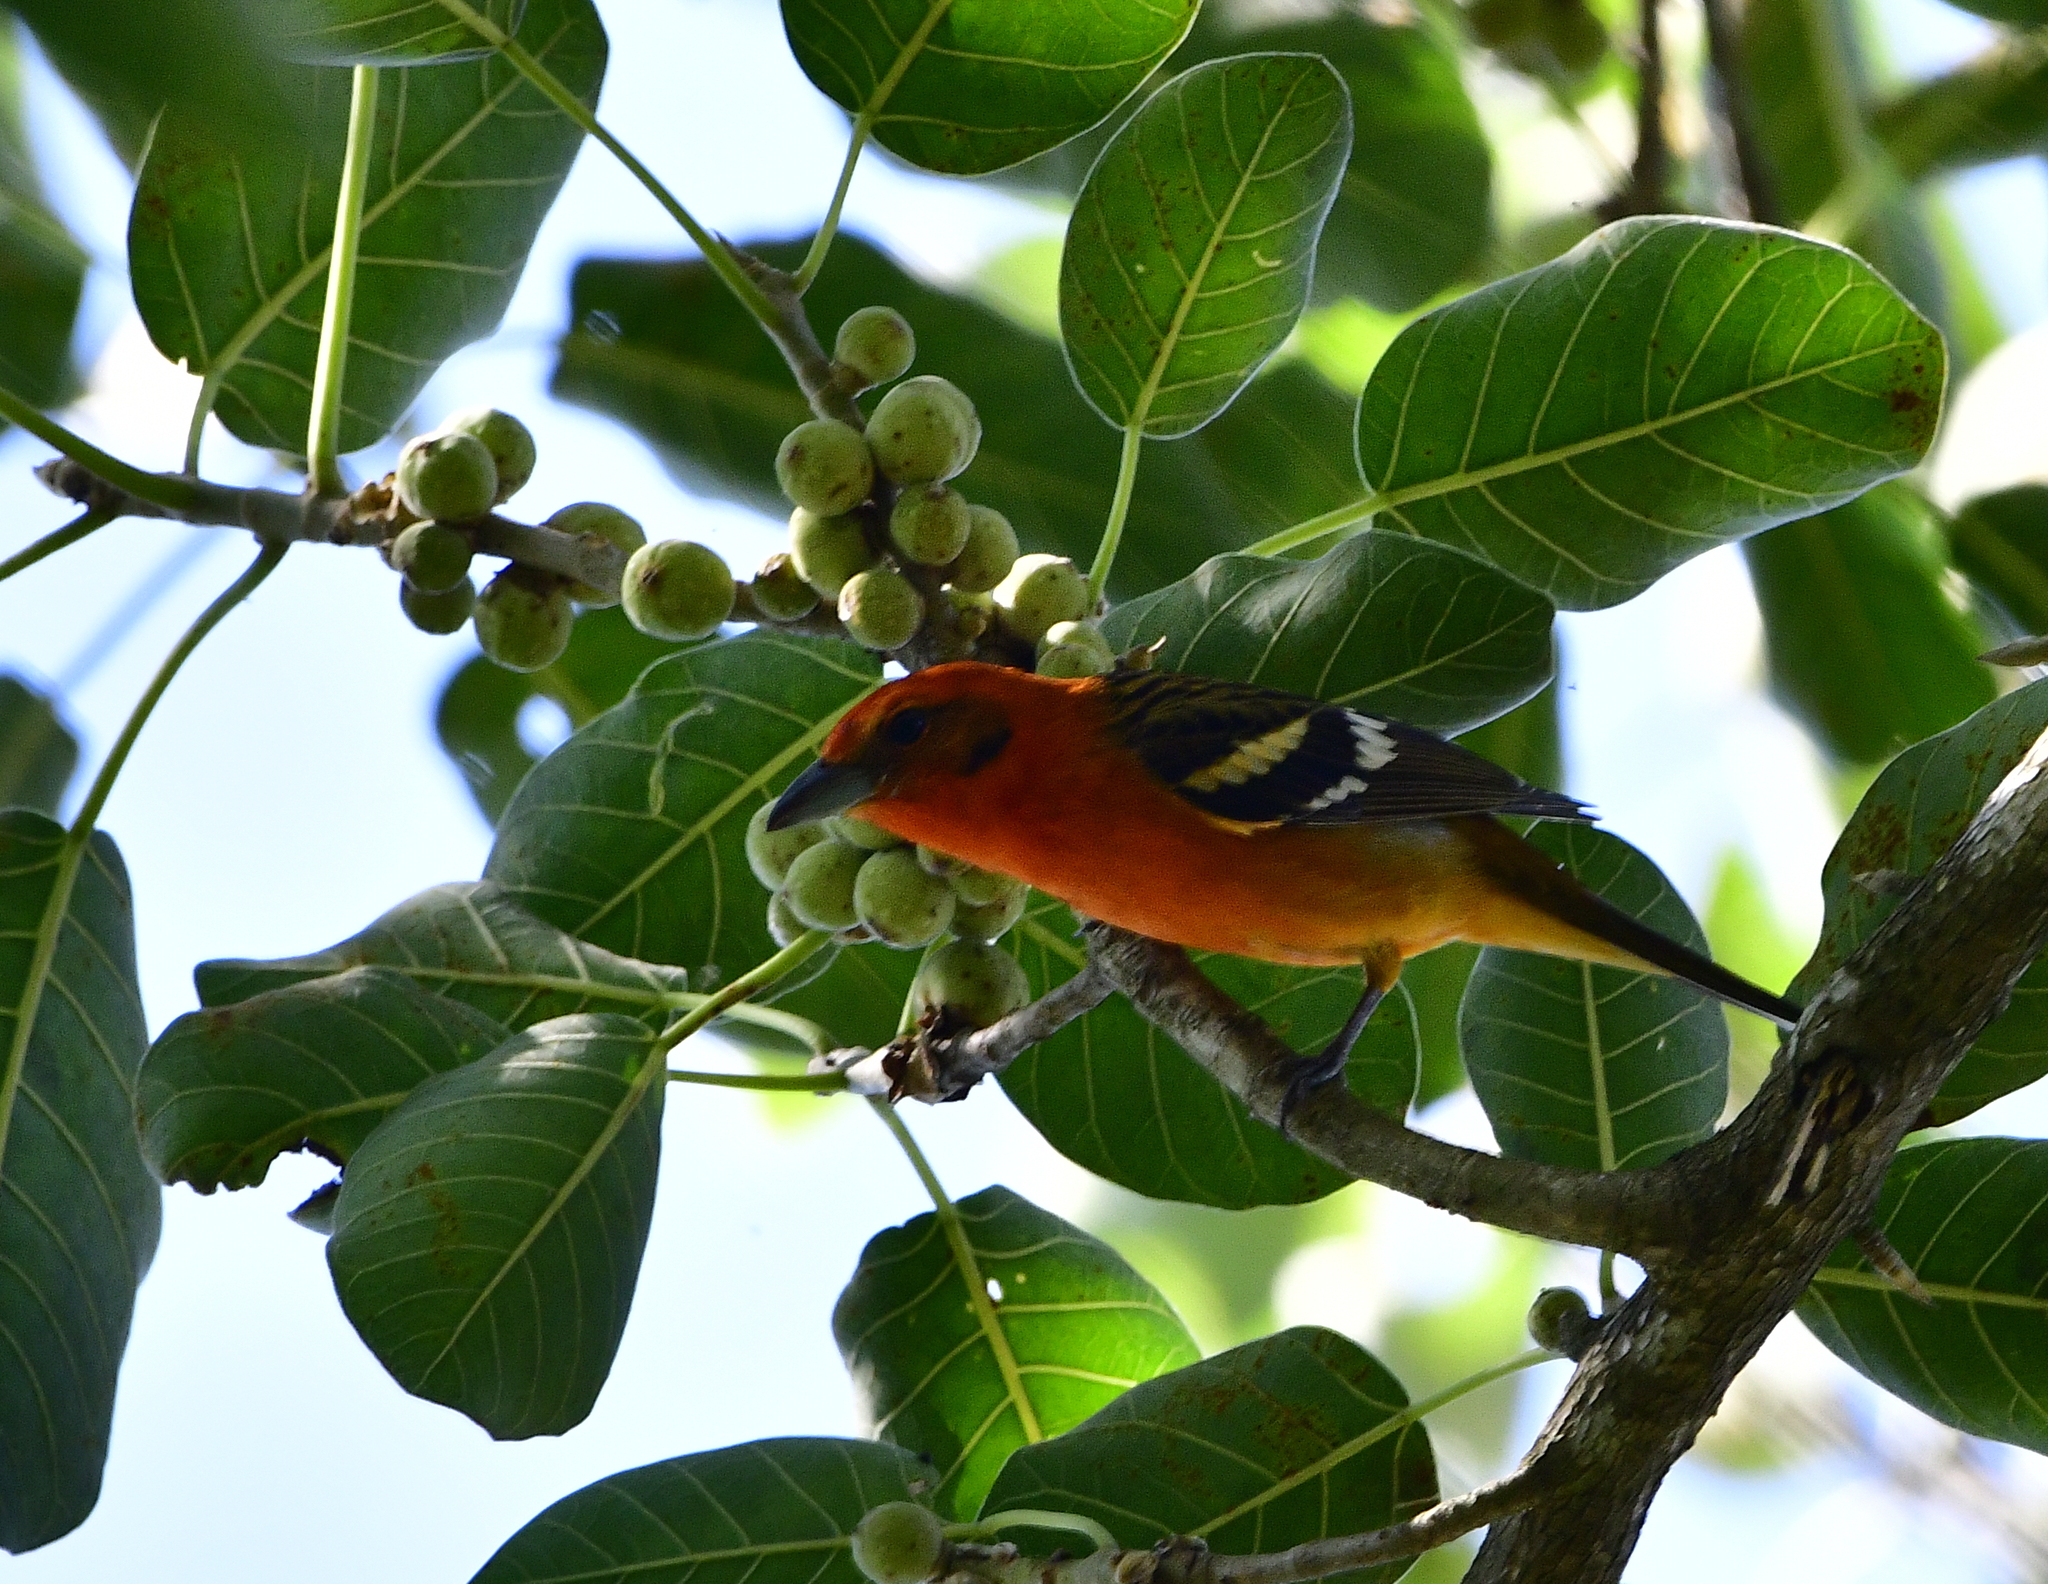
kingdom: Animalia
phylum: Chordata
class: Aves
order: Passeriformes
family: Cardinalidae
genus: Piranga
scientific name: Piranga bidentata
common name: Flame-colored tanager
